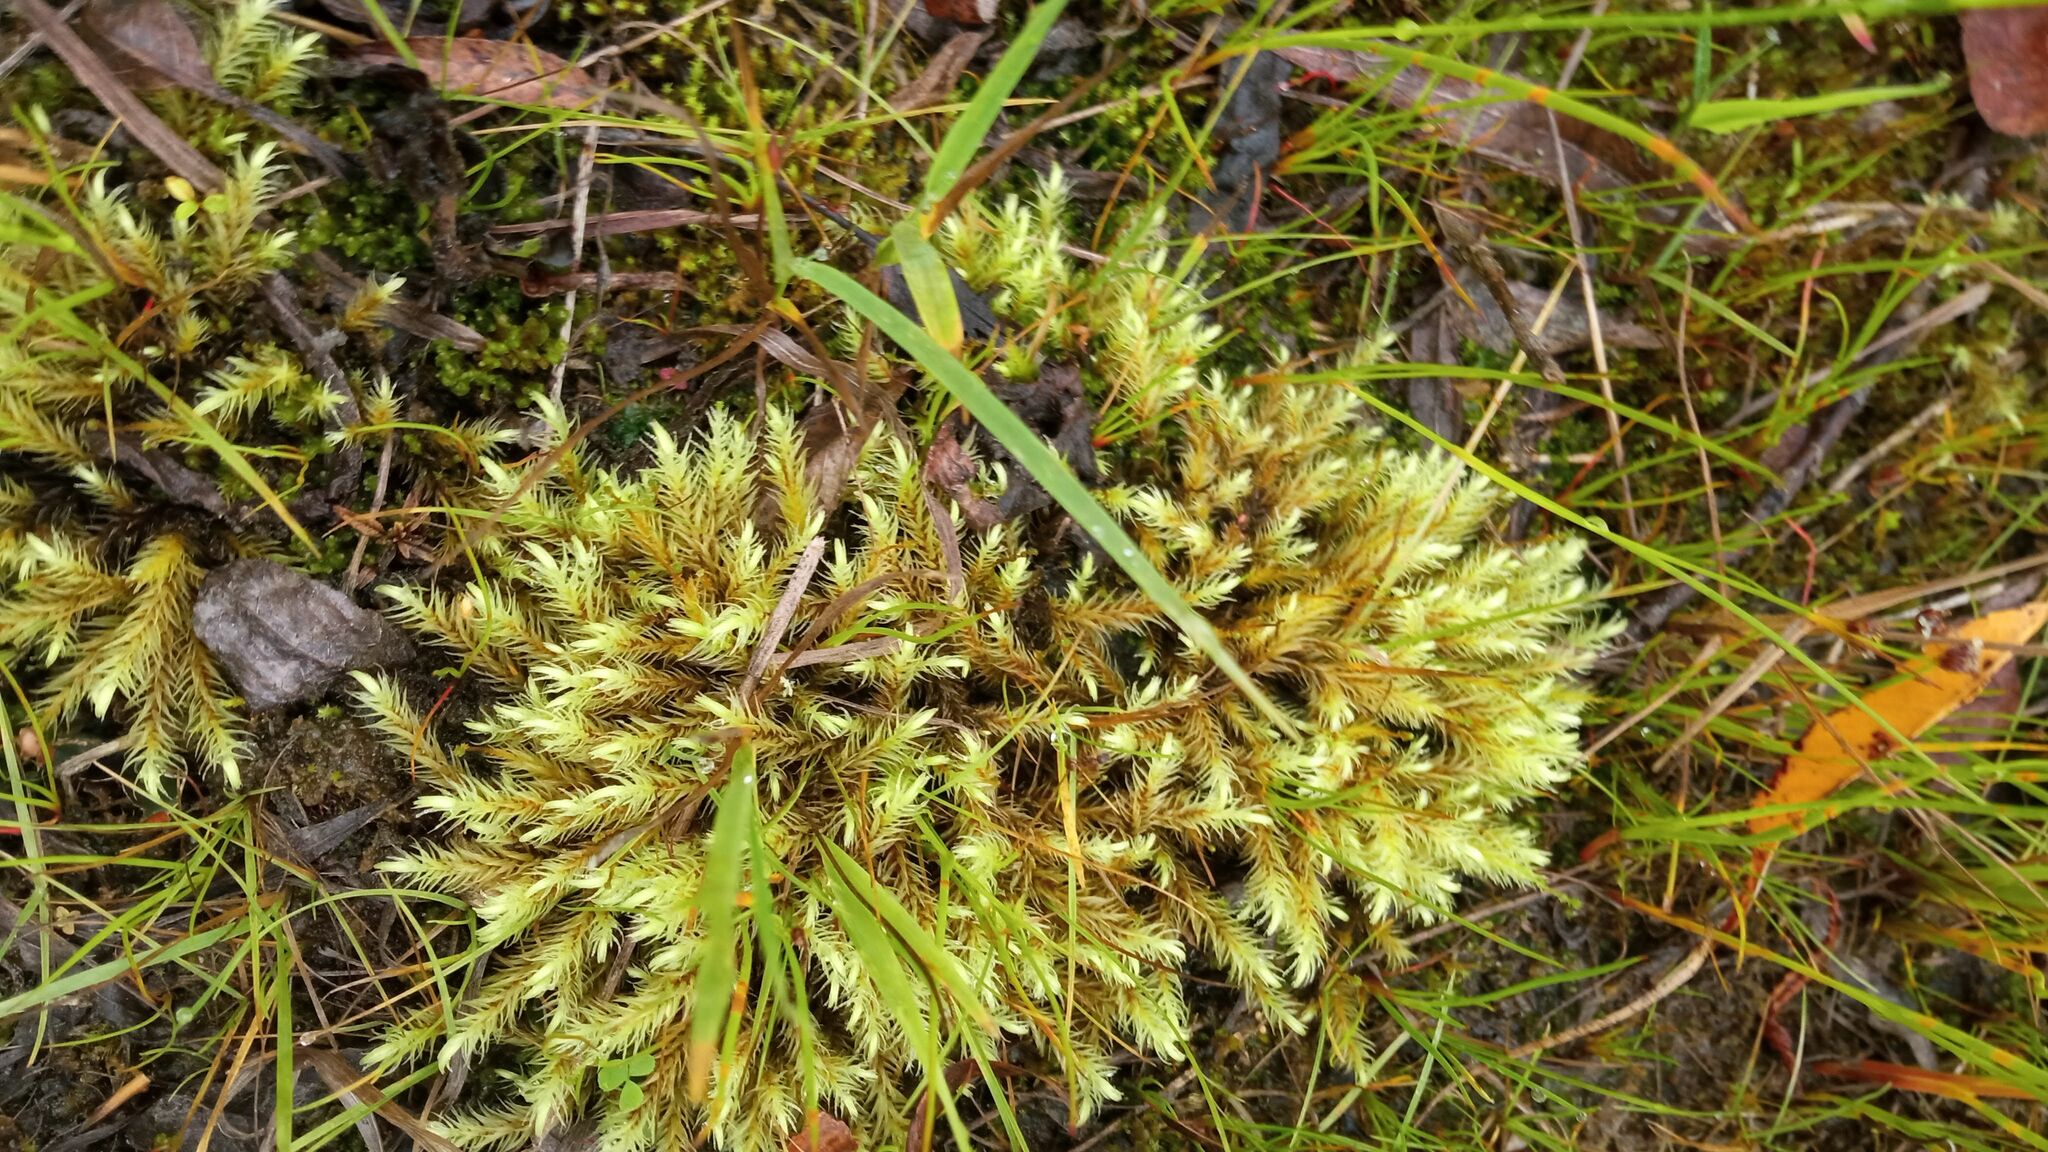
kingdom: Plantae
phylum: Bryophyta
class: Bryopsida
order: Aulacomniales
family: Aulacomniaceae
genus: Aulacomnium
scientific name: Aulacomnium palustre
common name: Bog groove-moss
